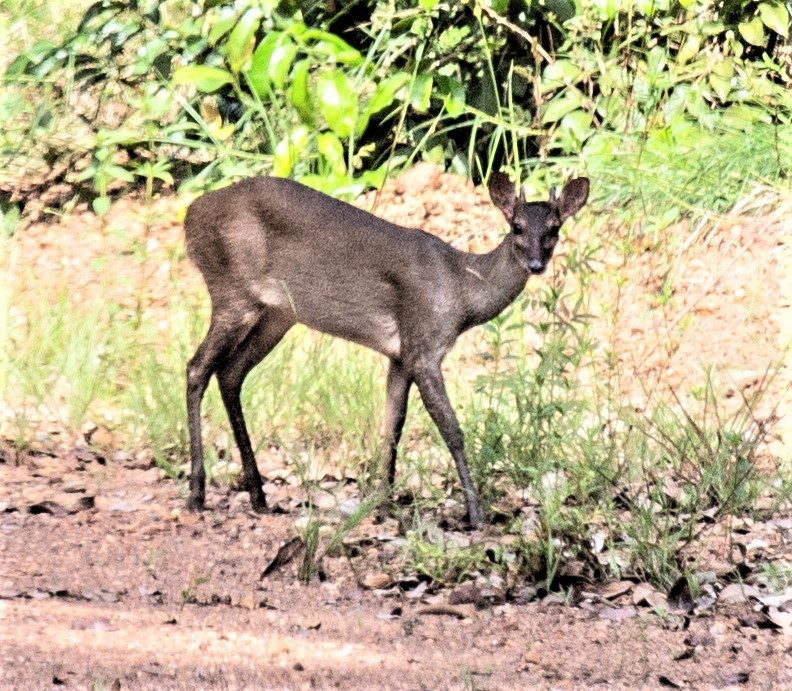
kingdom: Animalia
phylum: Chordata
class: Mammalia
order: Artiodactyla
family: Cervidae
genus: Mazama
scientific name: Mazama gouazoubira
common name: Gray brocket
